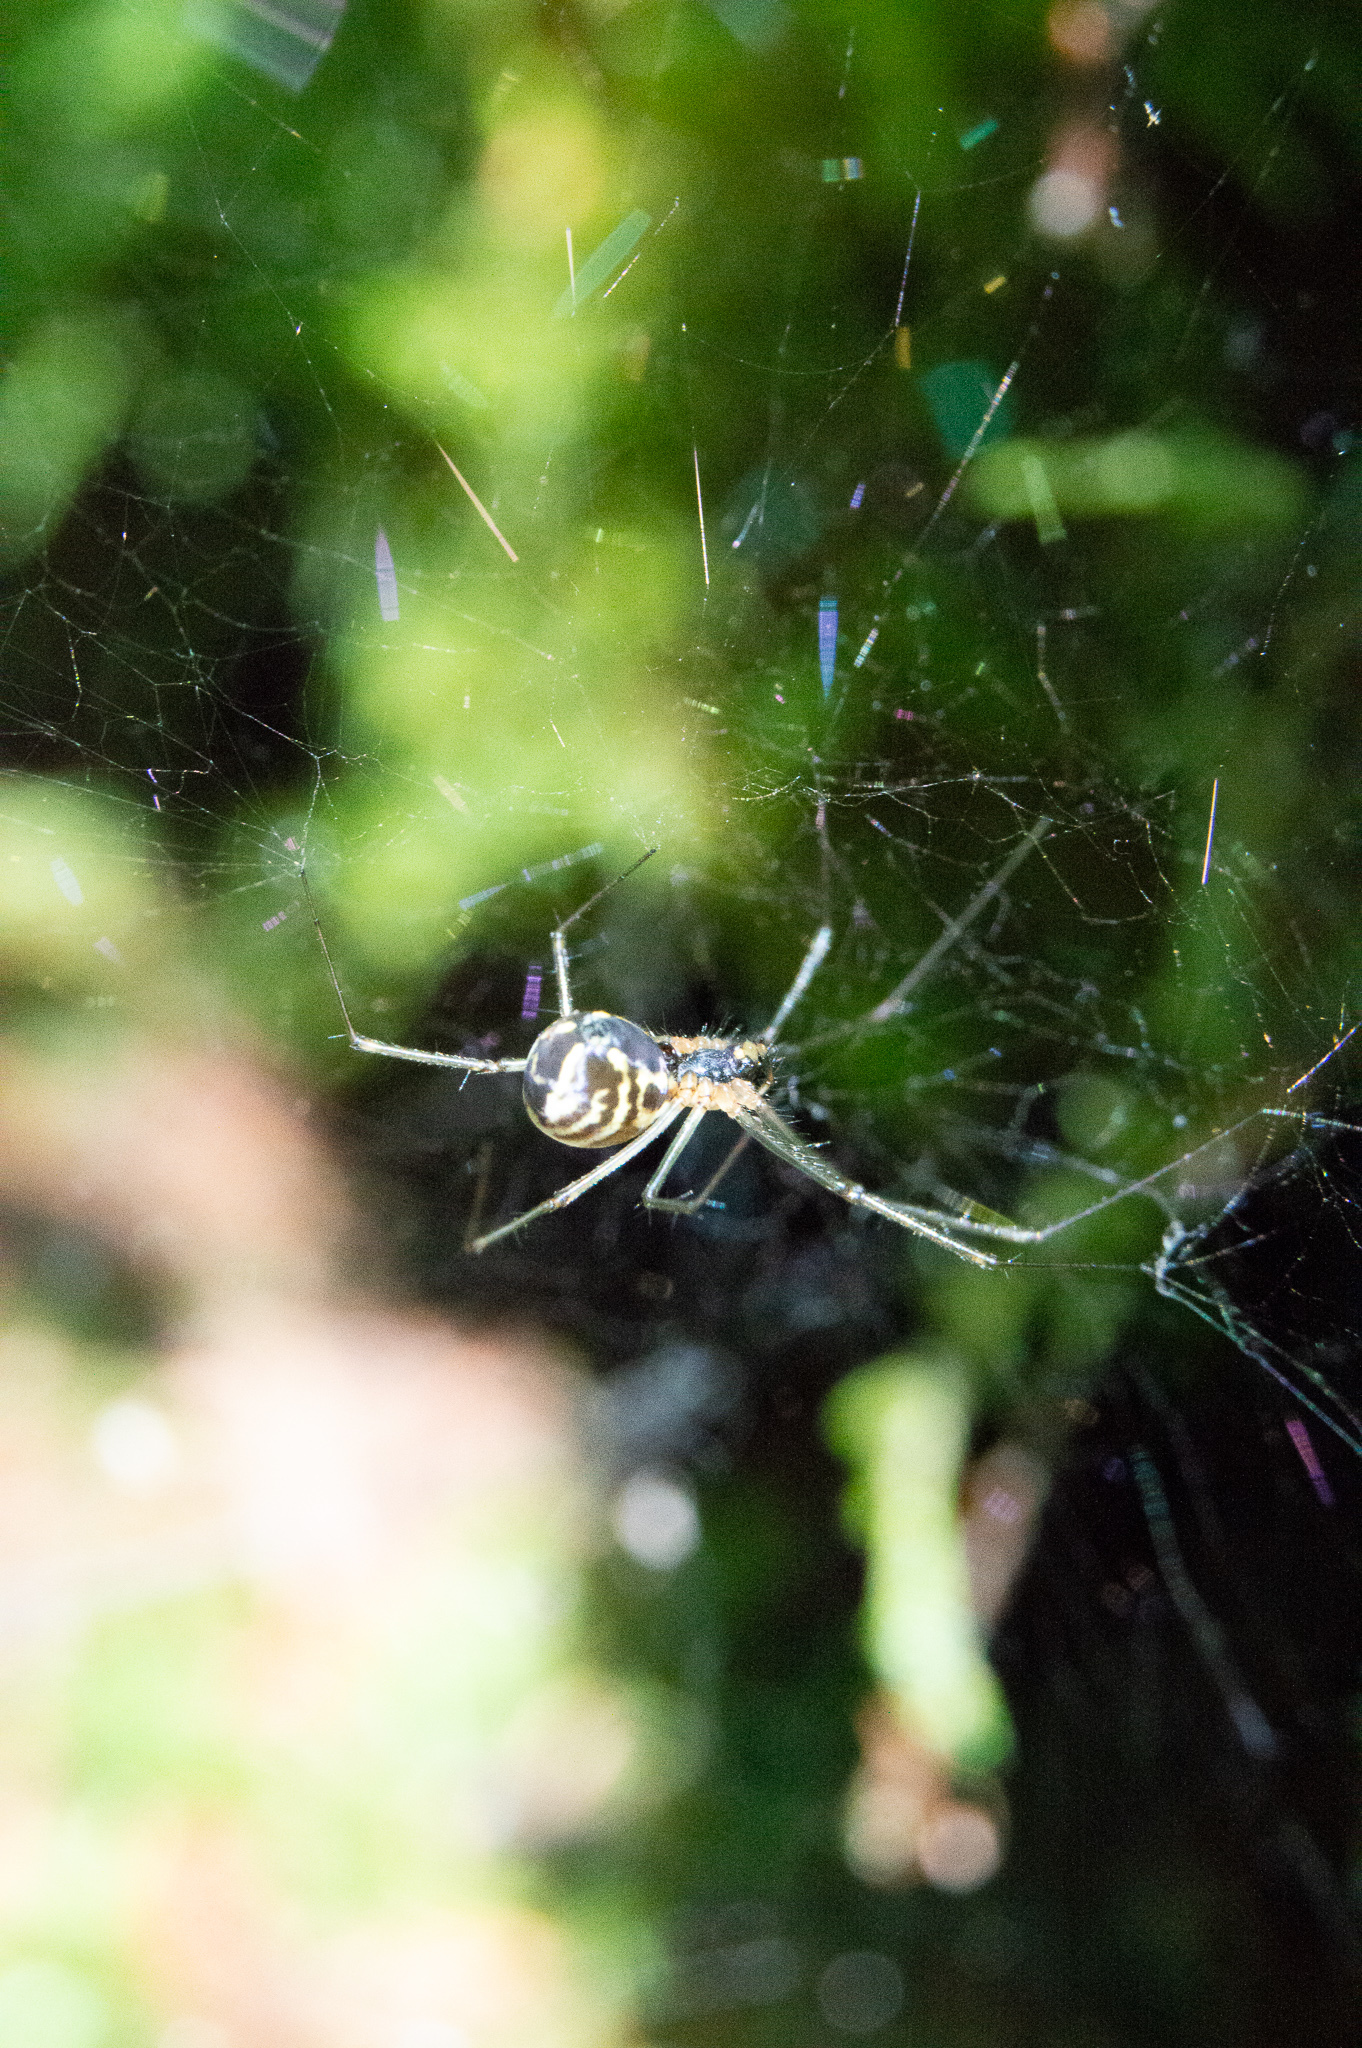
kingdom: Animalia
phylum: Arthropoda
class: Arachnida
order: Araneae
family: Linyphiidae
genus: Neriene
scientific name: Neriene radiata
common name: Filmy dome spider
